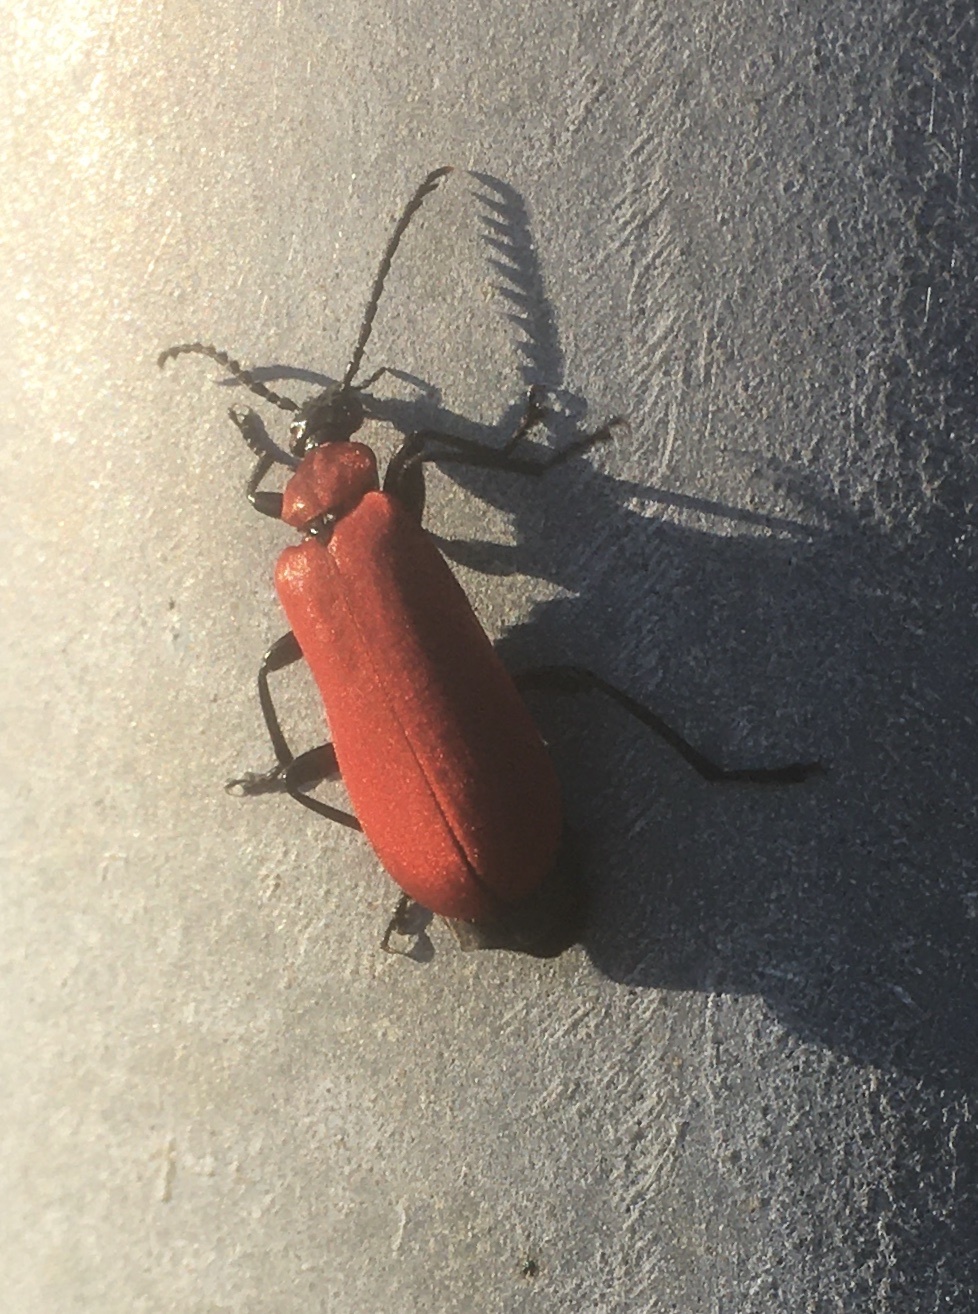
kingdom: Animalia
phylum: Arthropoda
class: Insecta
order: Coleoptera
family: Pyrochroidae
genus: Pyrochroa
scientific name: Pyrochroa coccinea
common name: Black-headed cardinal beetle
